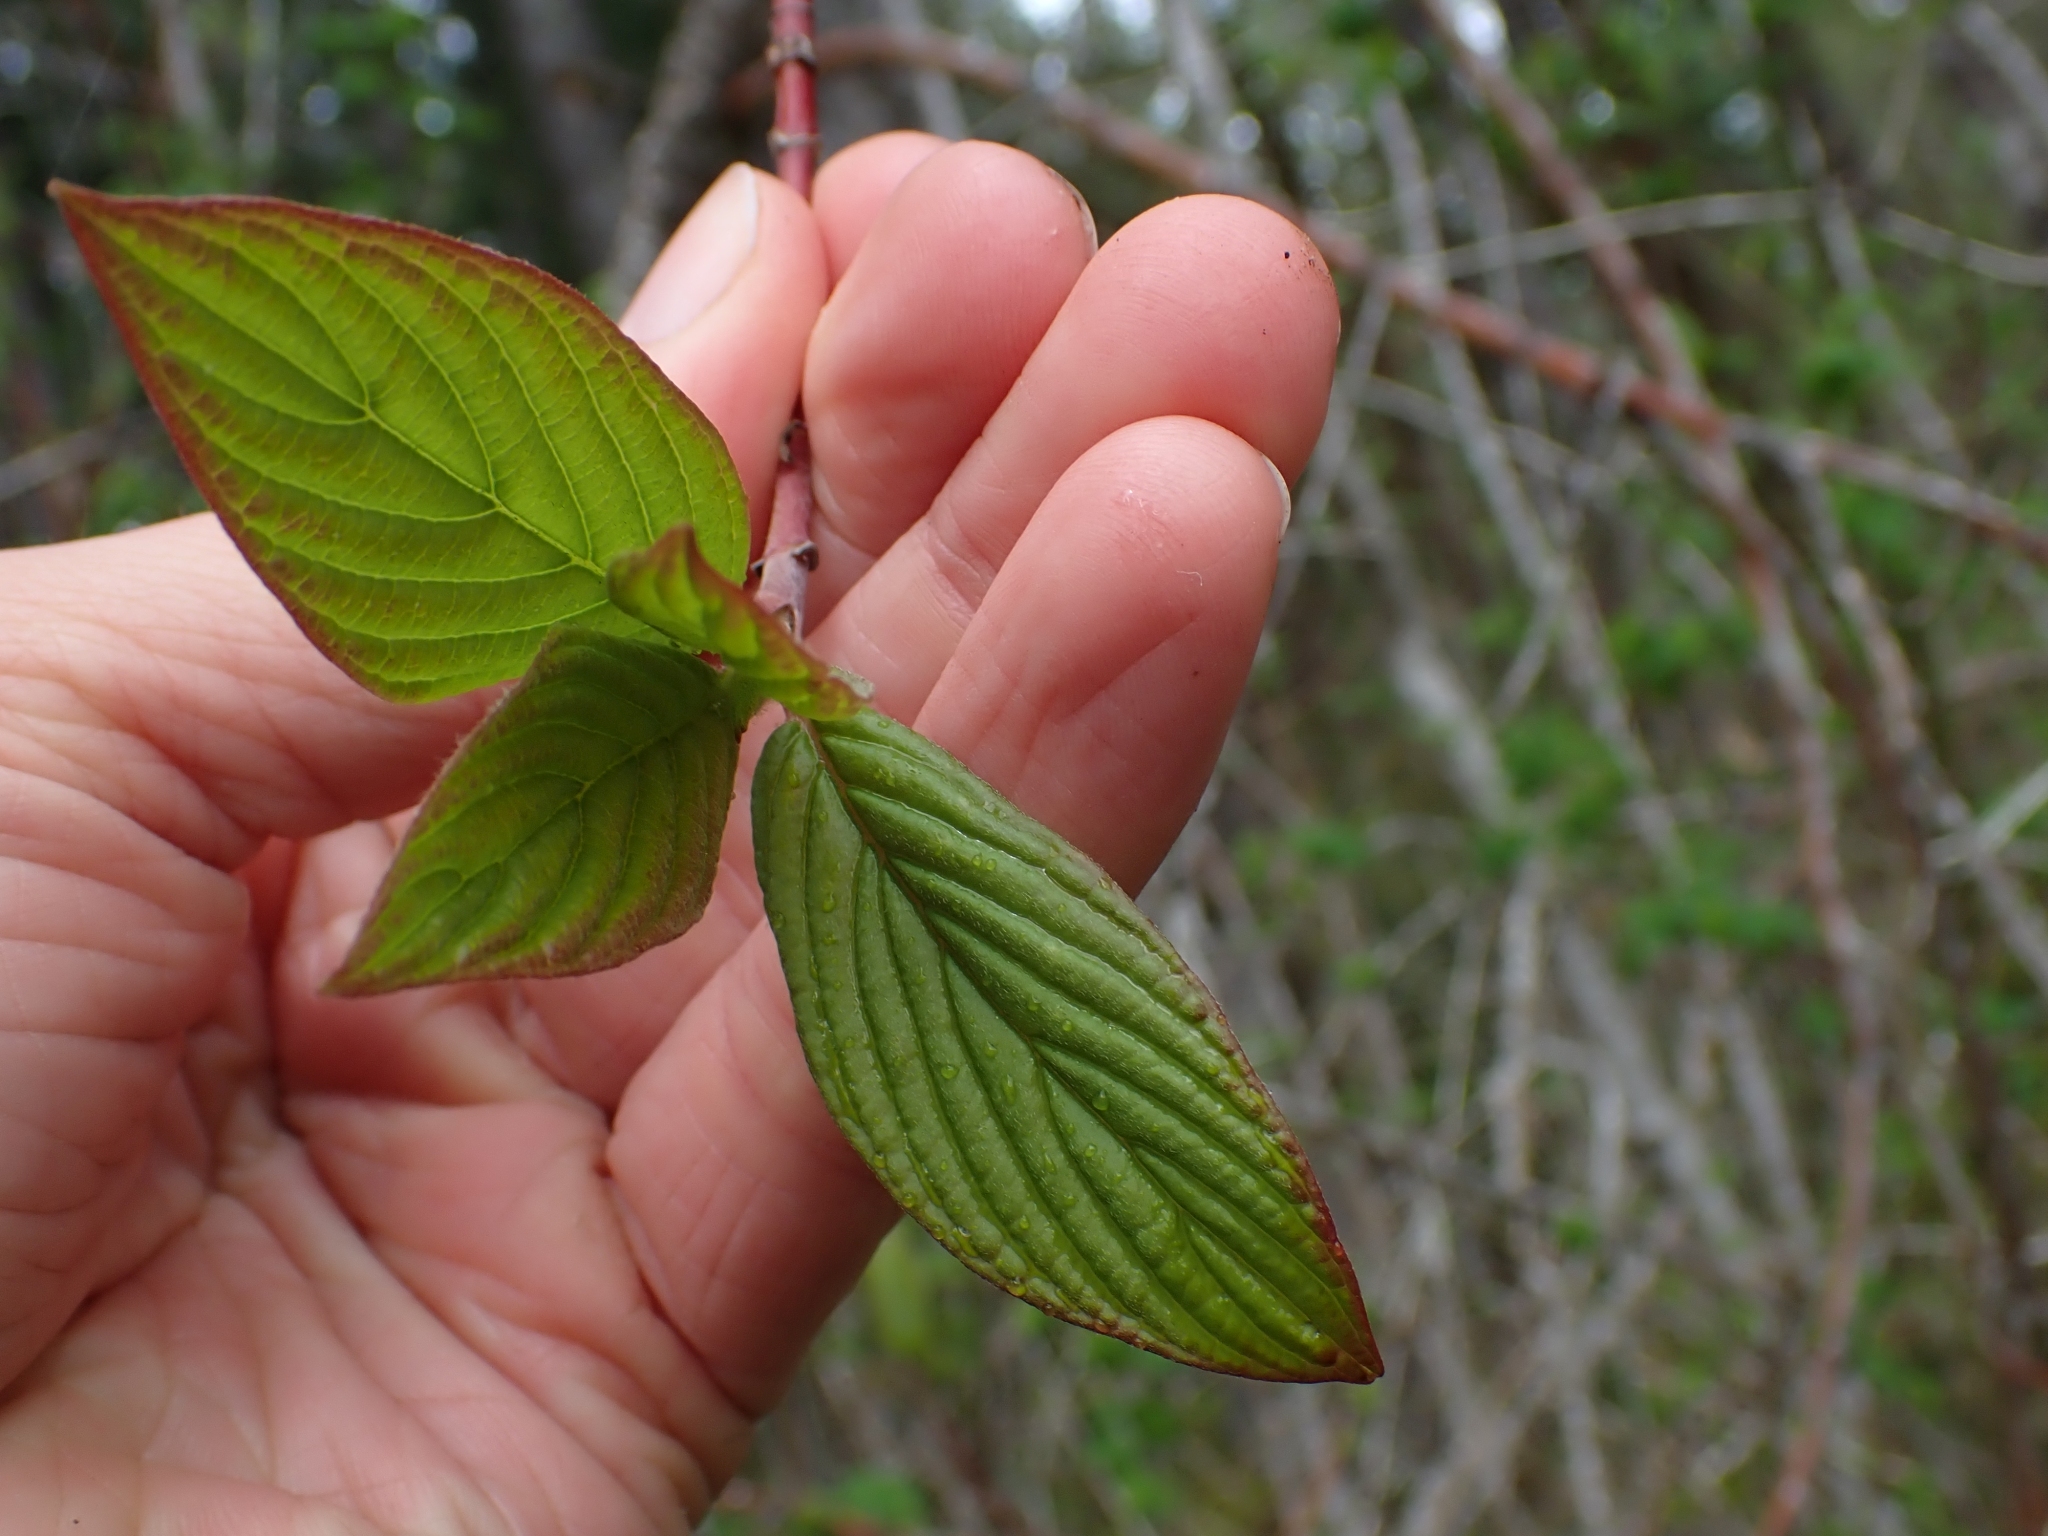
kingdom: Plantae
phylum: Tracheophyta
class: Magnoliopsida
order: Cornales
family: Cornaceae
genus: Cornus
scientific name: Cornus sericea
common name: Red-osier dogwood
